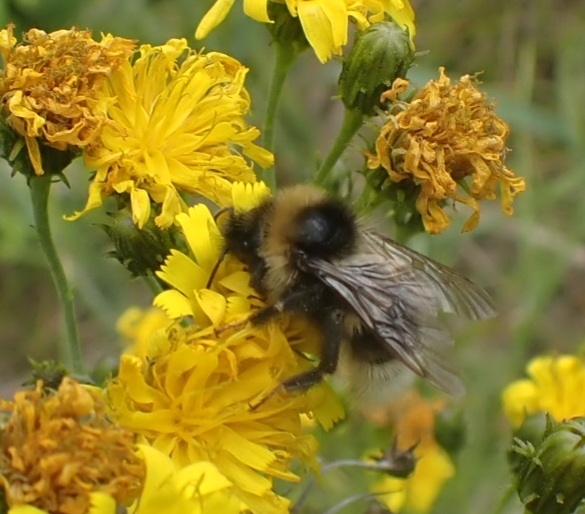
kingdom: Animalia
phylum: Arthropoda
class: Insecta
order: Hymenoptera
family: Apidae
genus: Bombus
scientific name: Bombus bohemicus
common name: Gypsy cuckoo bee
